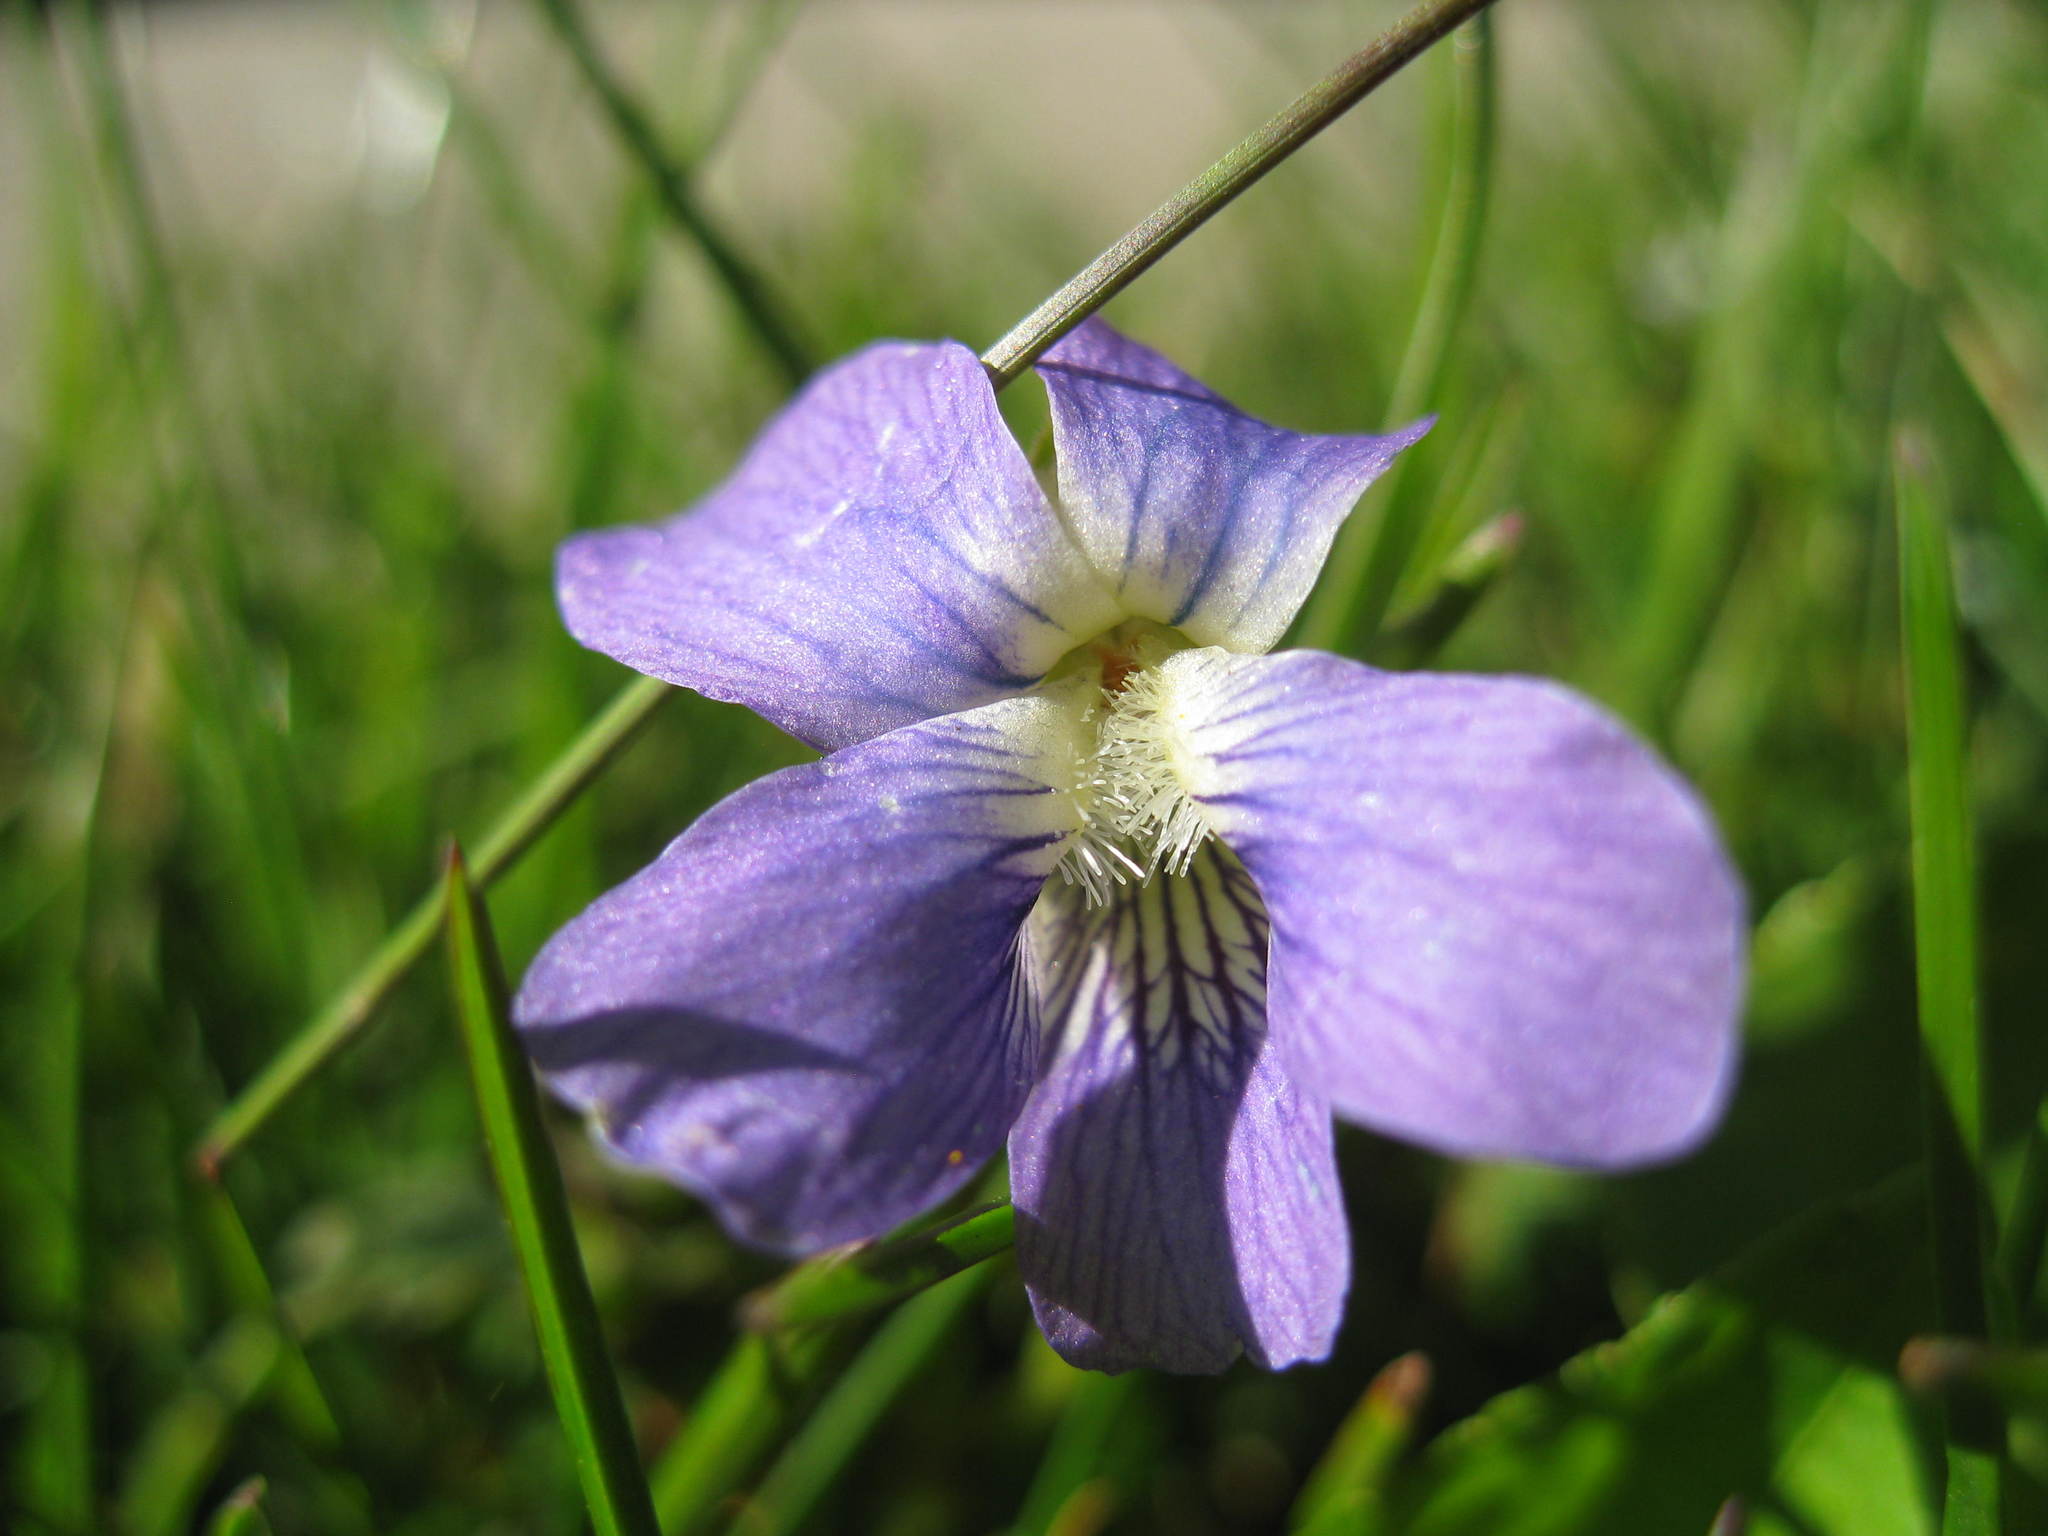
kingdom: Plantae
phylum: Tracheophyta
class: Magnoliopsida
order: Malpighiales
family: Violaceae
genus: Viola
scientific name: Viola sororia
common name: Dooryard violet
